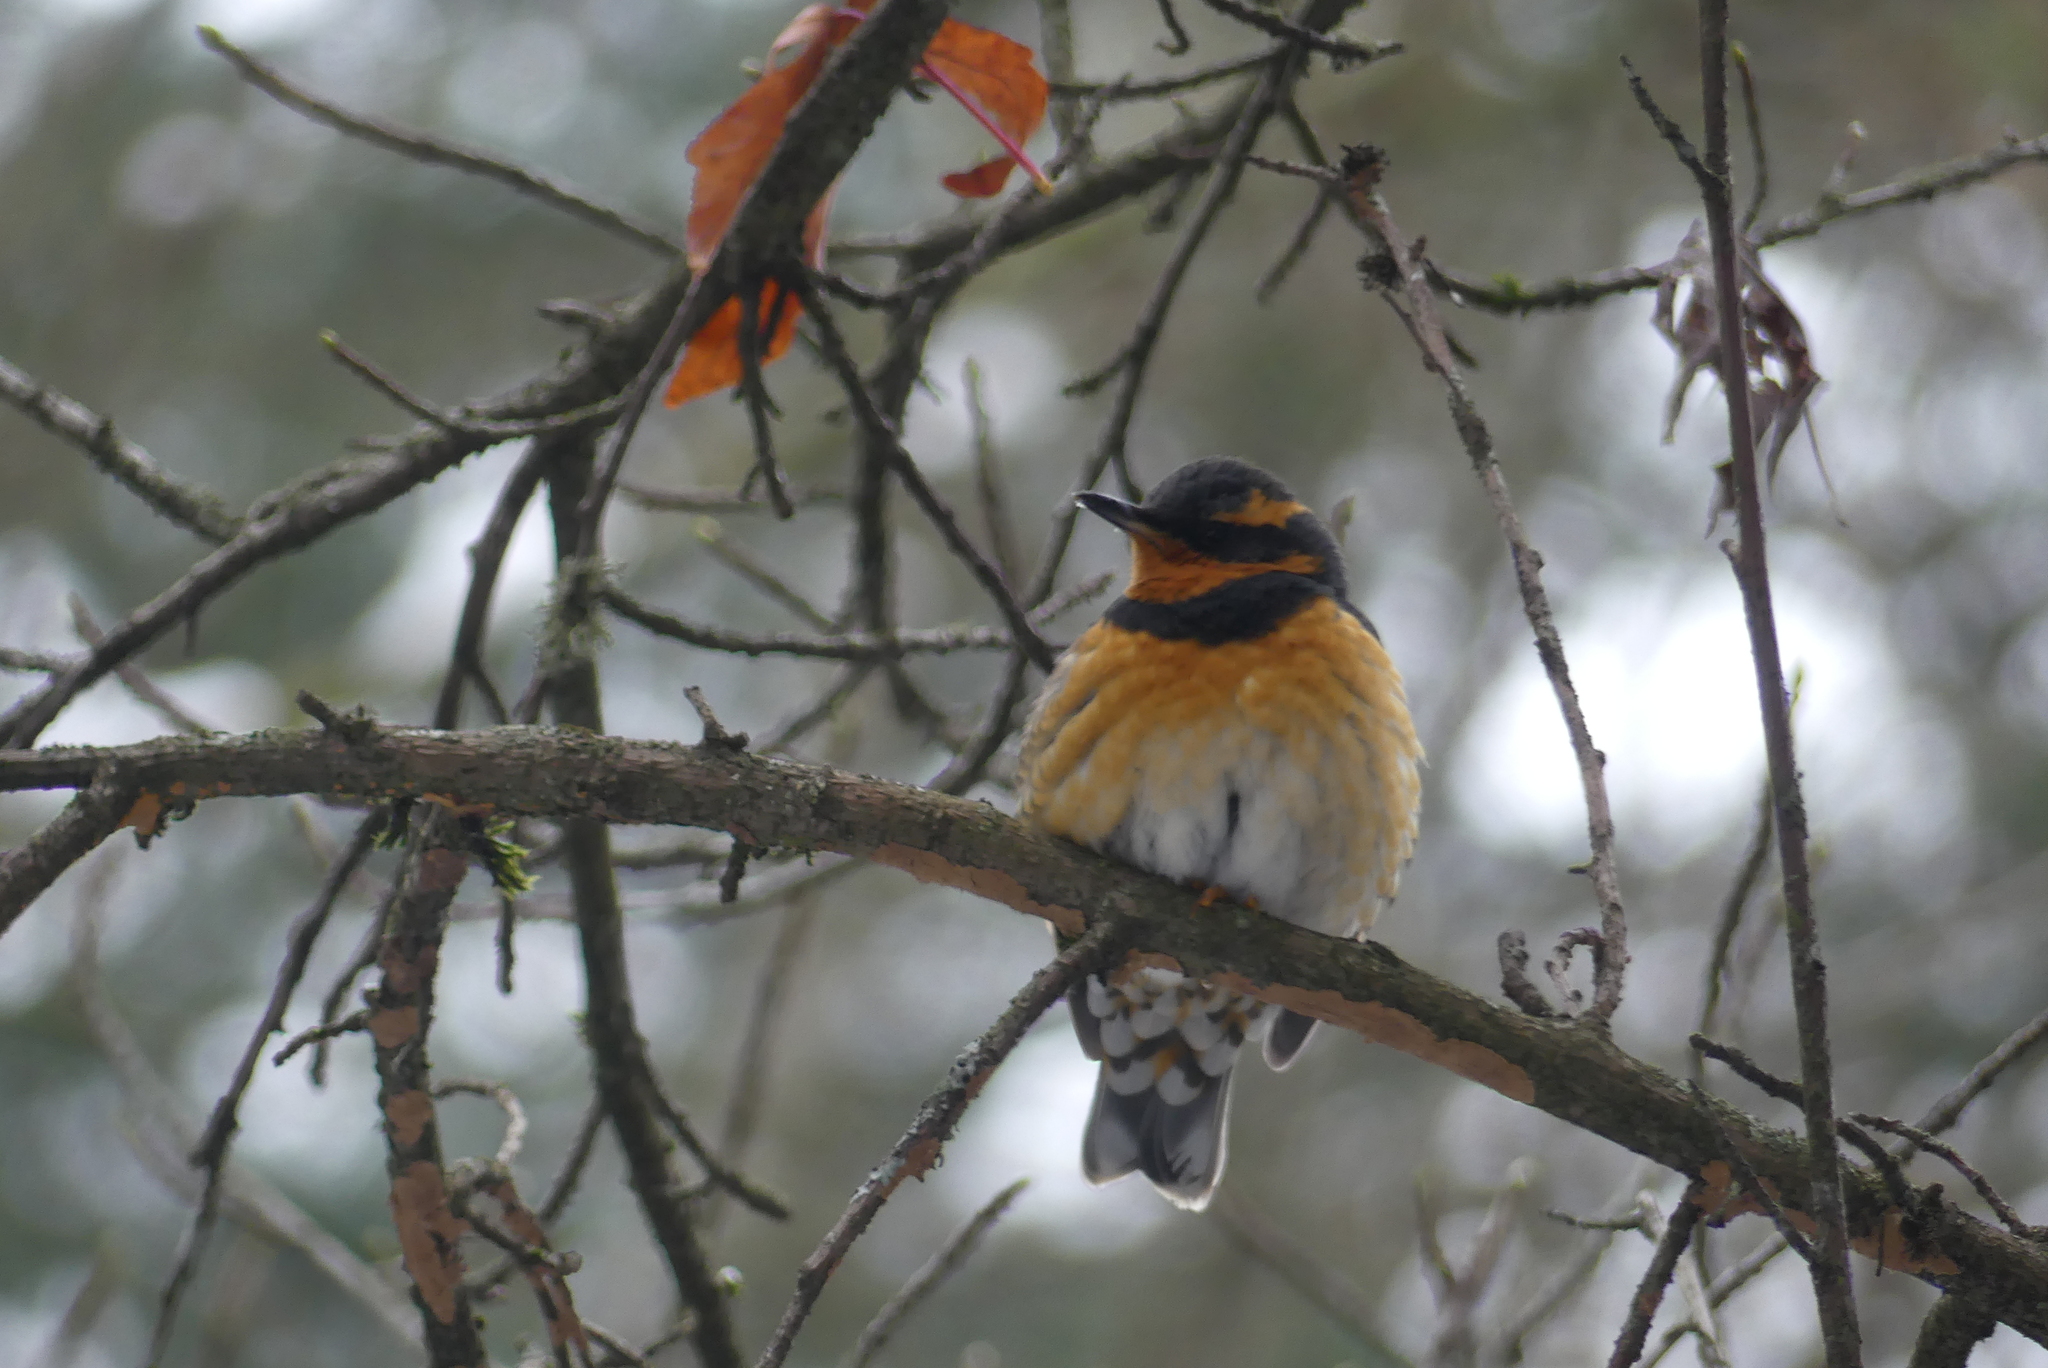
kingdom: Animalia
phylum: Chordata
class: Aves
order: Passeriformes
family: Turdidae
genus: Ixoreus
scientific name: Ixoreus naevius
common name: Varied thrush
